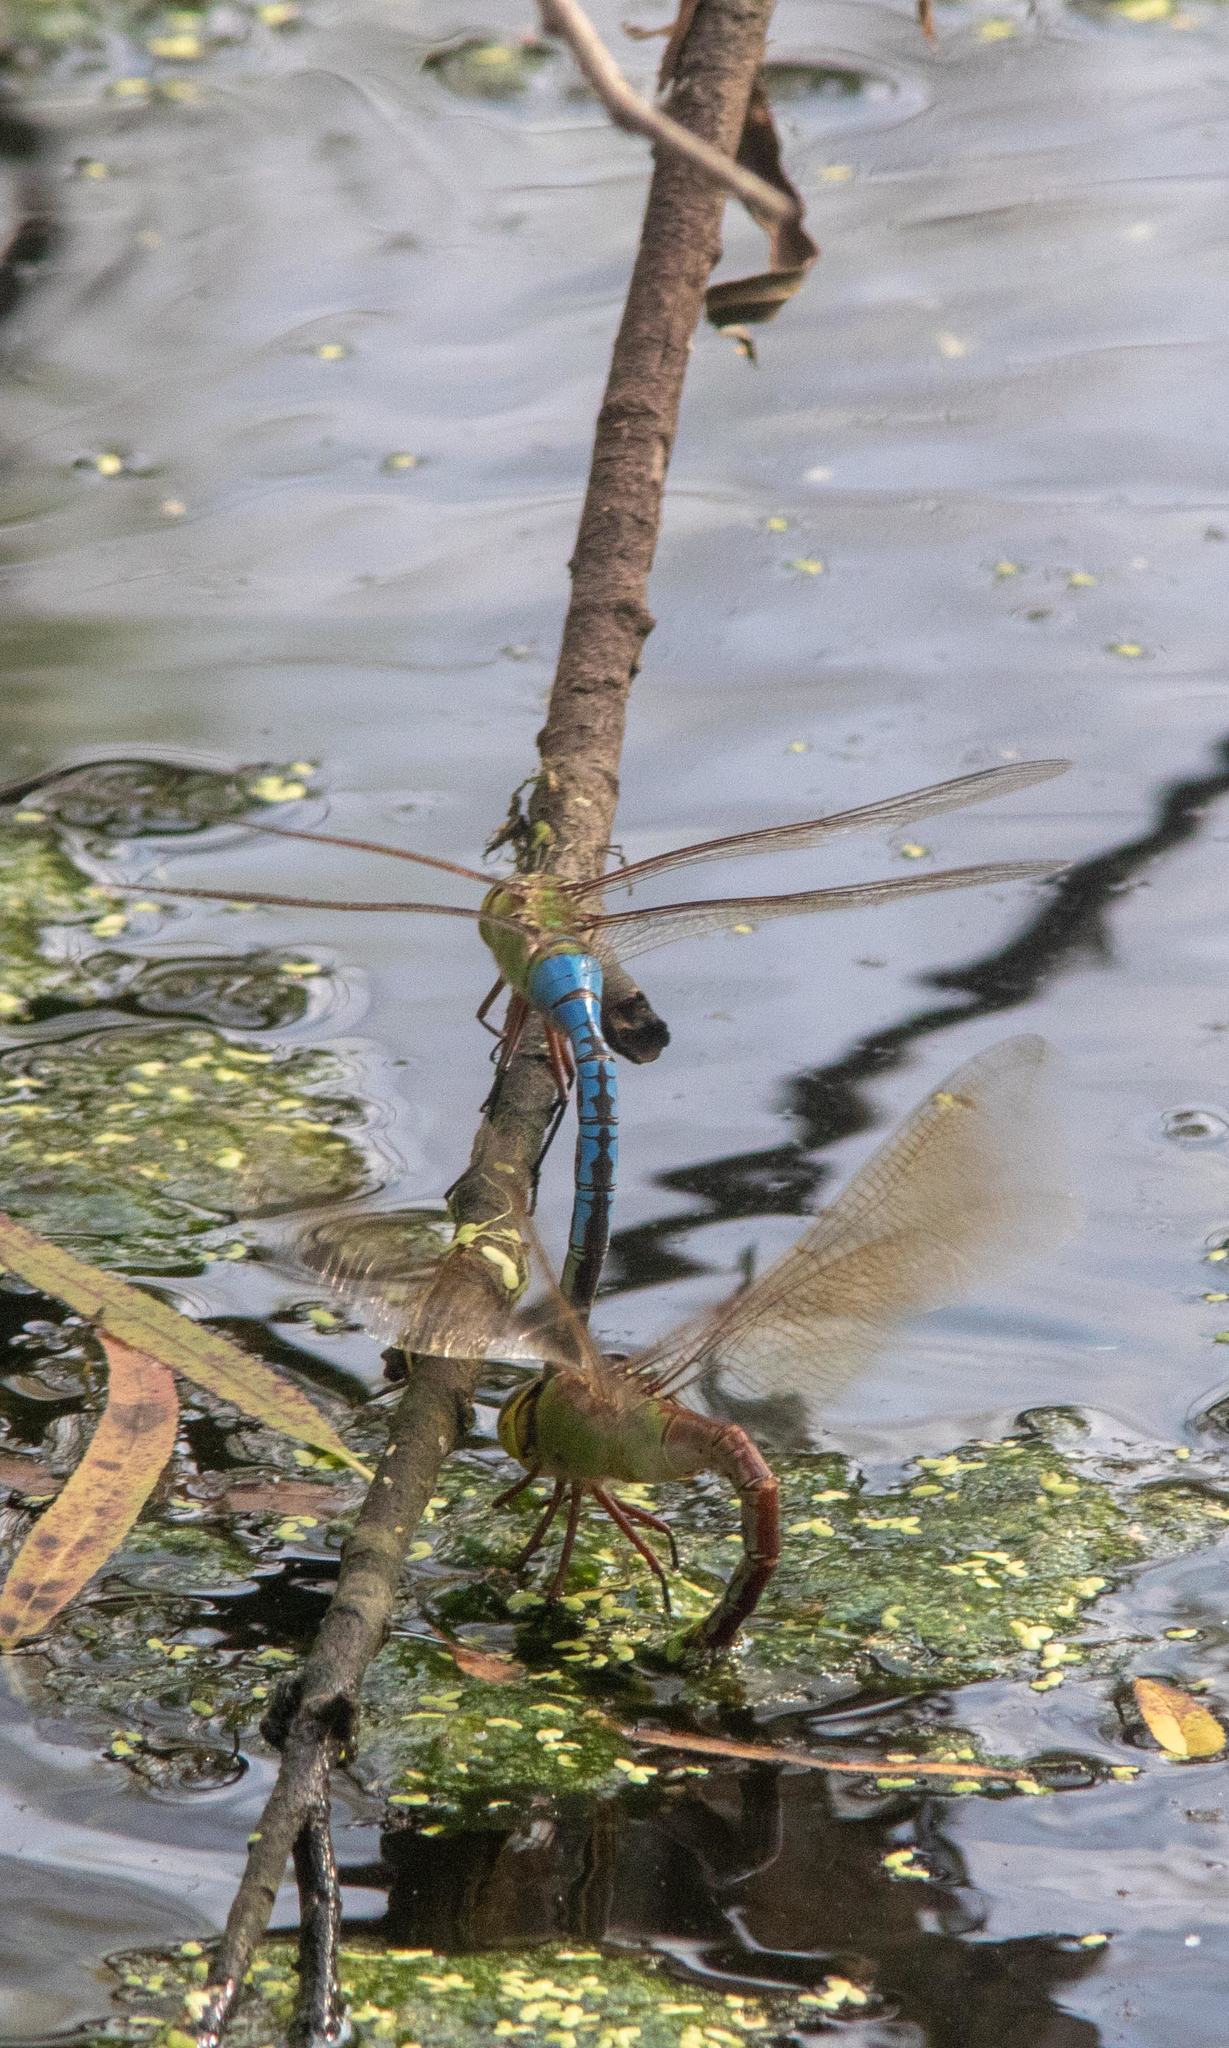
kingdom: Animalia
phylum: Arthropoda
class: Insecta
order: Odonata
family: Aeshnidae
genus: Anax
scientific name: Anax junius
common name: Common green darner
